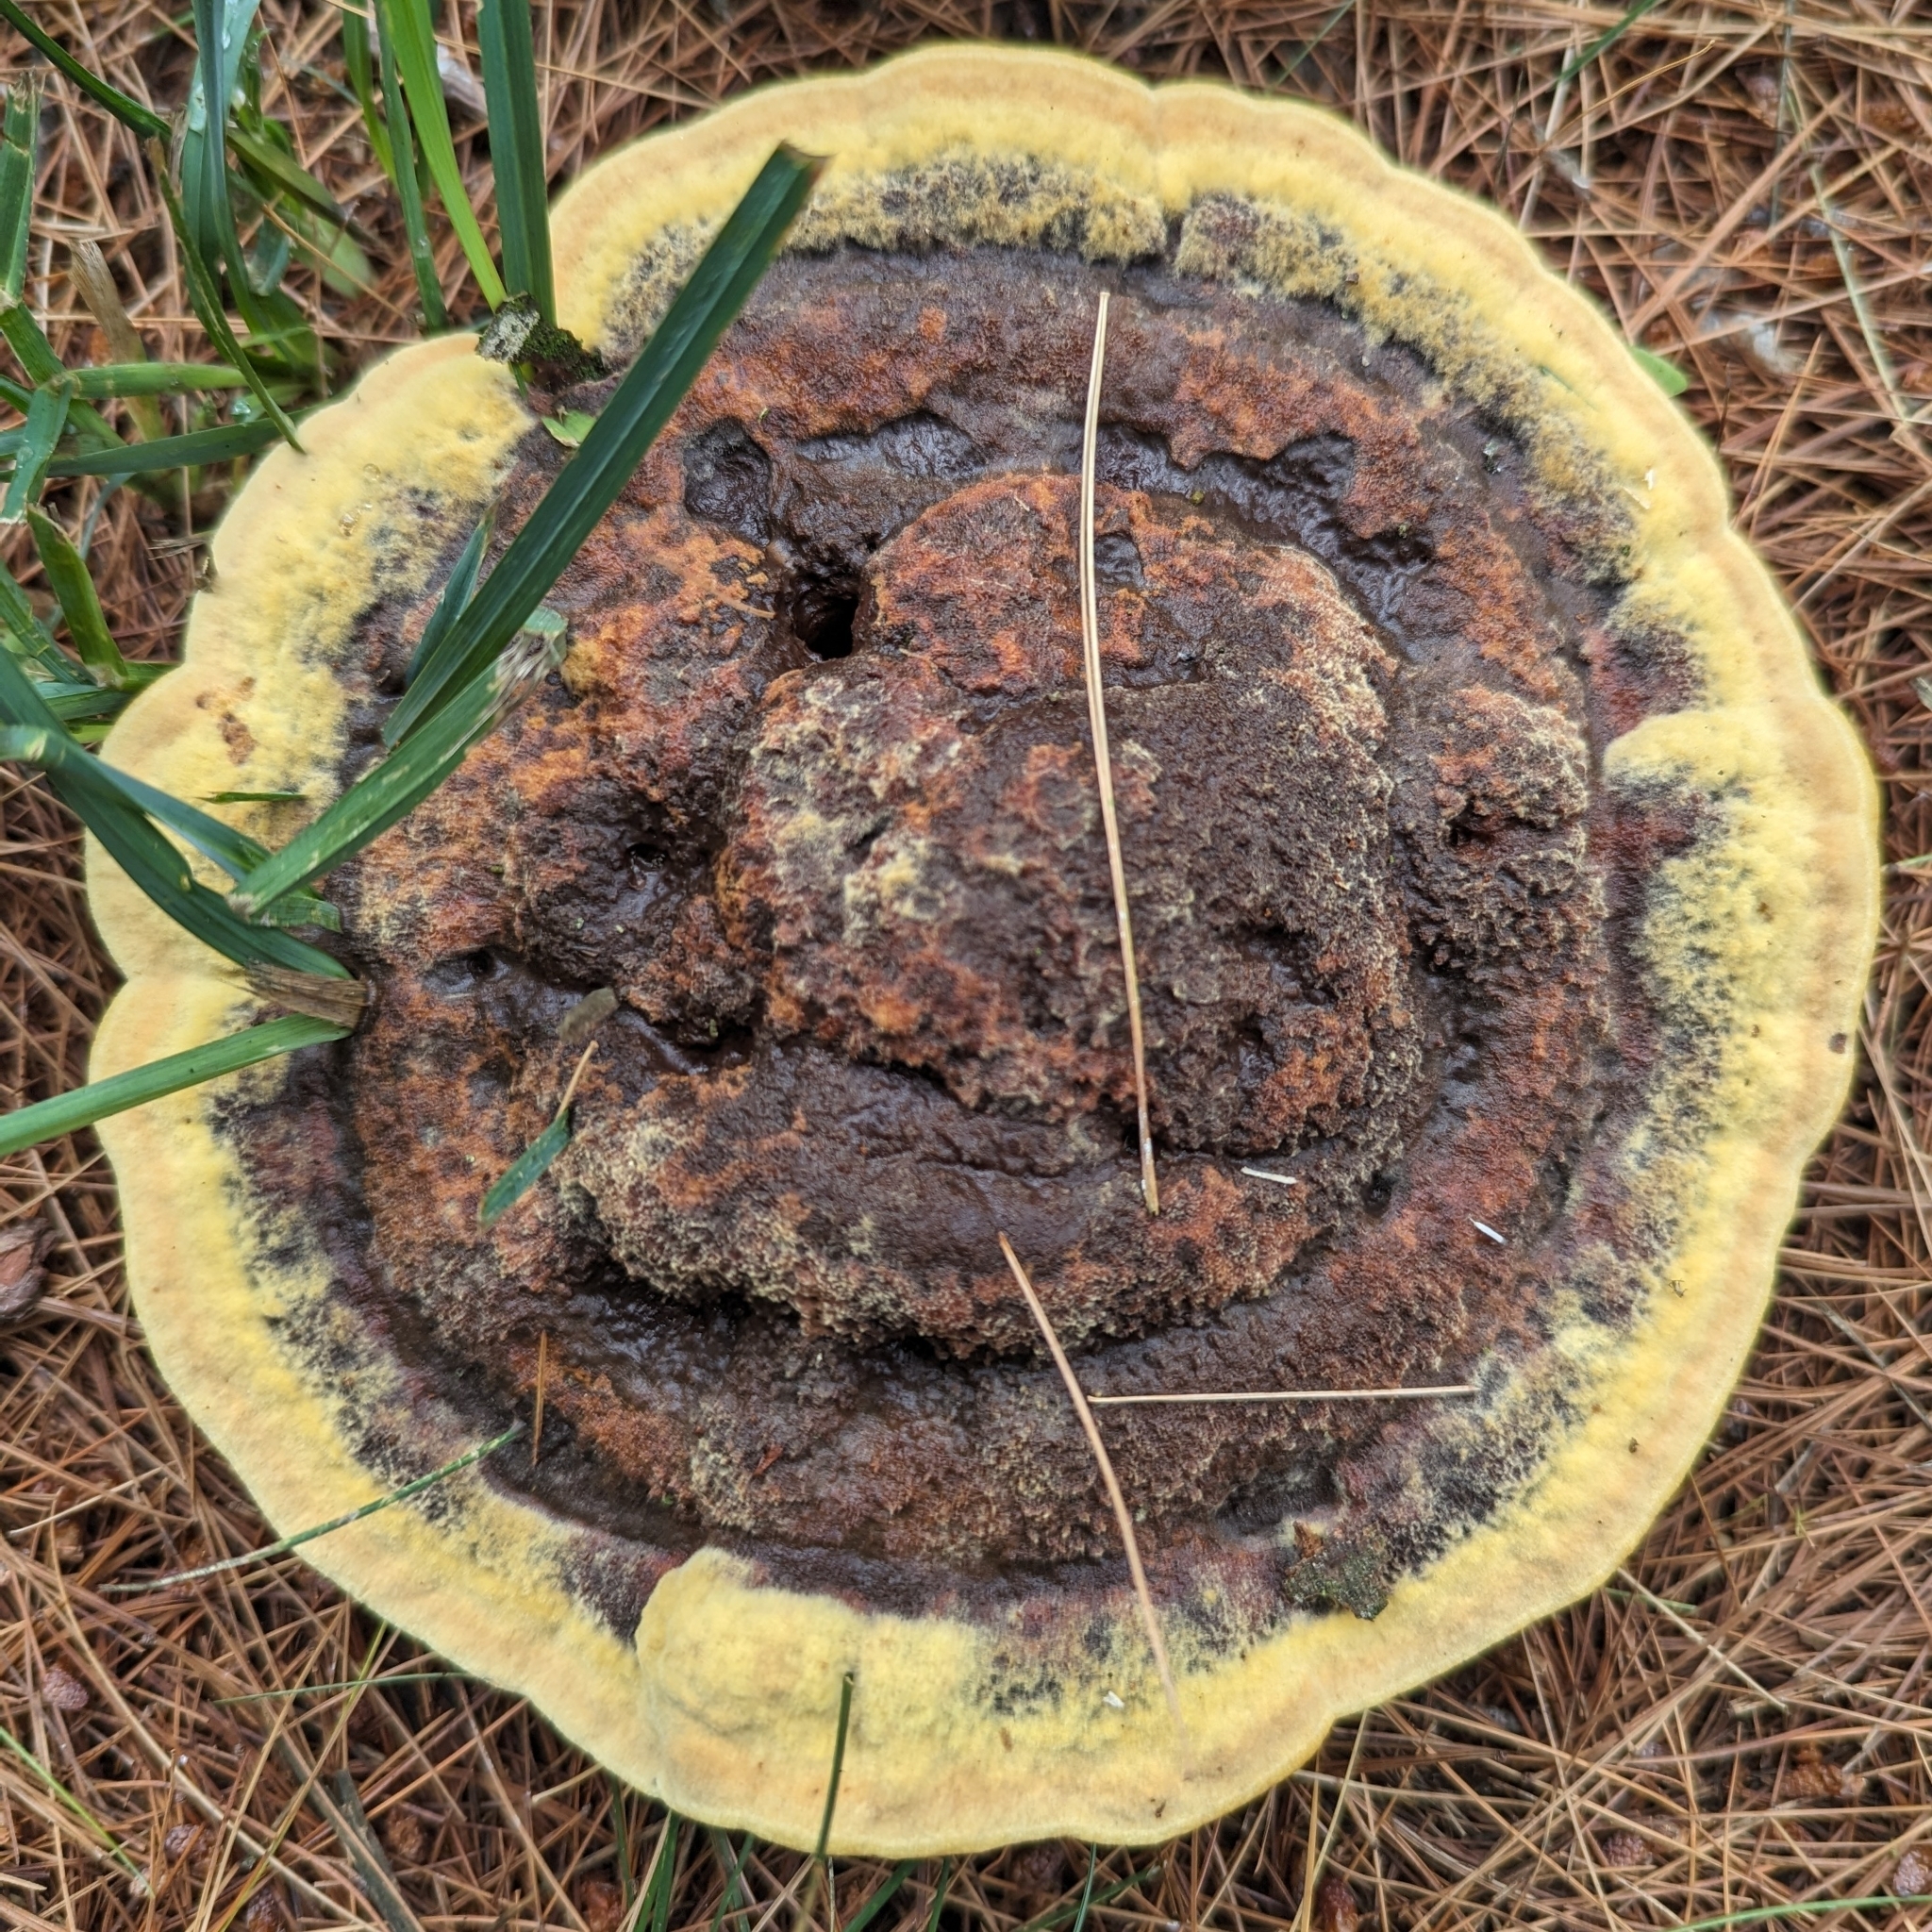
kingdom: Fungi
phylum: Basidiomycota
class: Agaricomycetes
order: Polyporales
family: Laetiporaceae
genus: Phaeolus
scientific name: Phaeolus schweinitzii
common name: Dyer's mazegill
